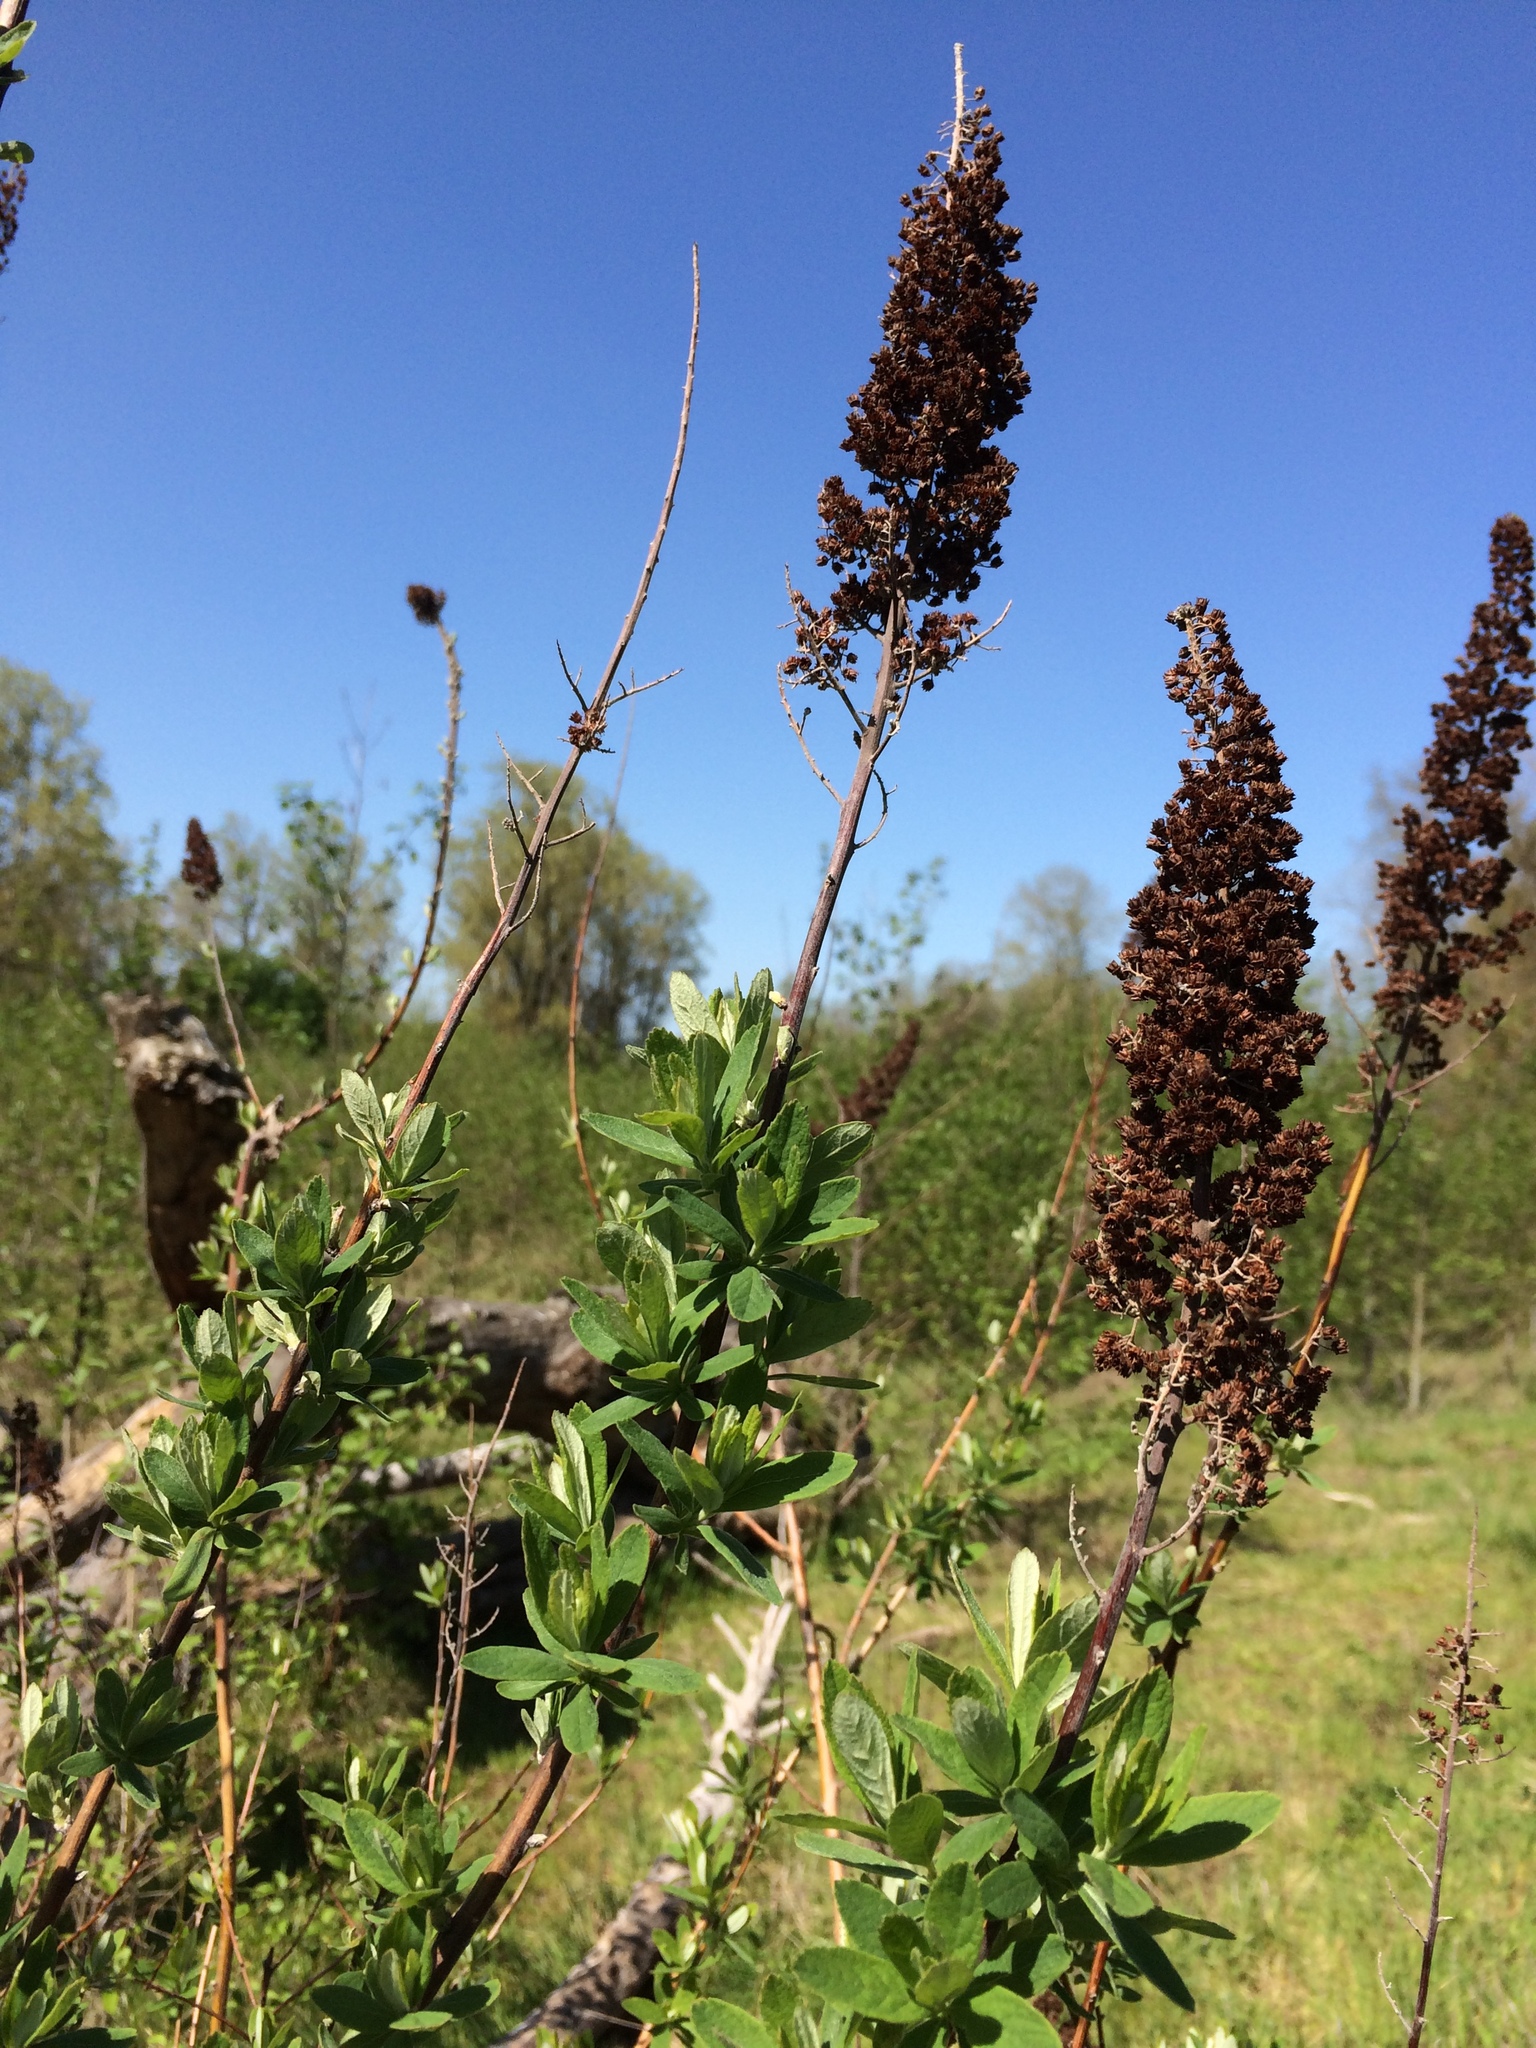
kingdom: Plantae
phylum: Tracheophyta
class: Magnoliopsida
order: Rosales
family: Rosaceae
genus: Spiraea
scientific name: Spiraea douglasii
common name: Steeplebush
